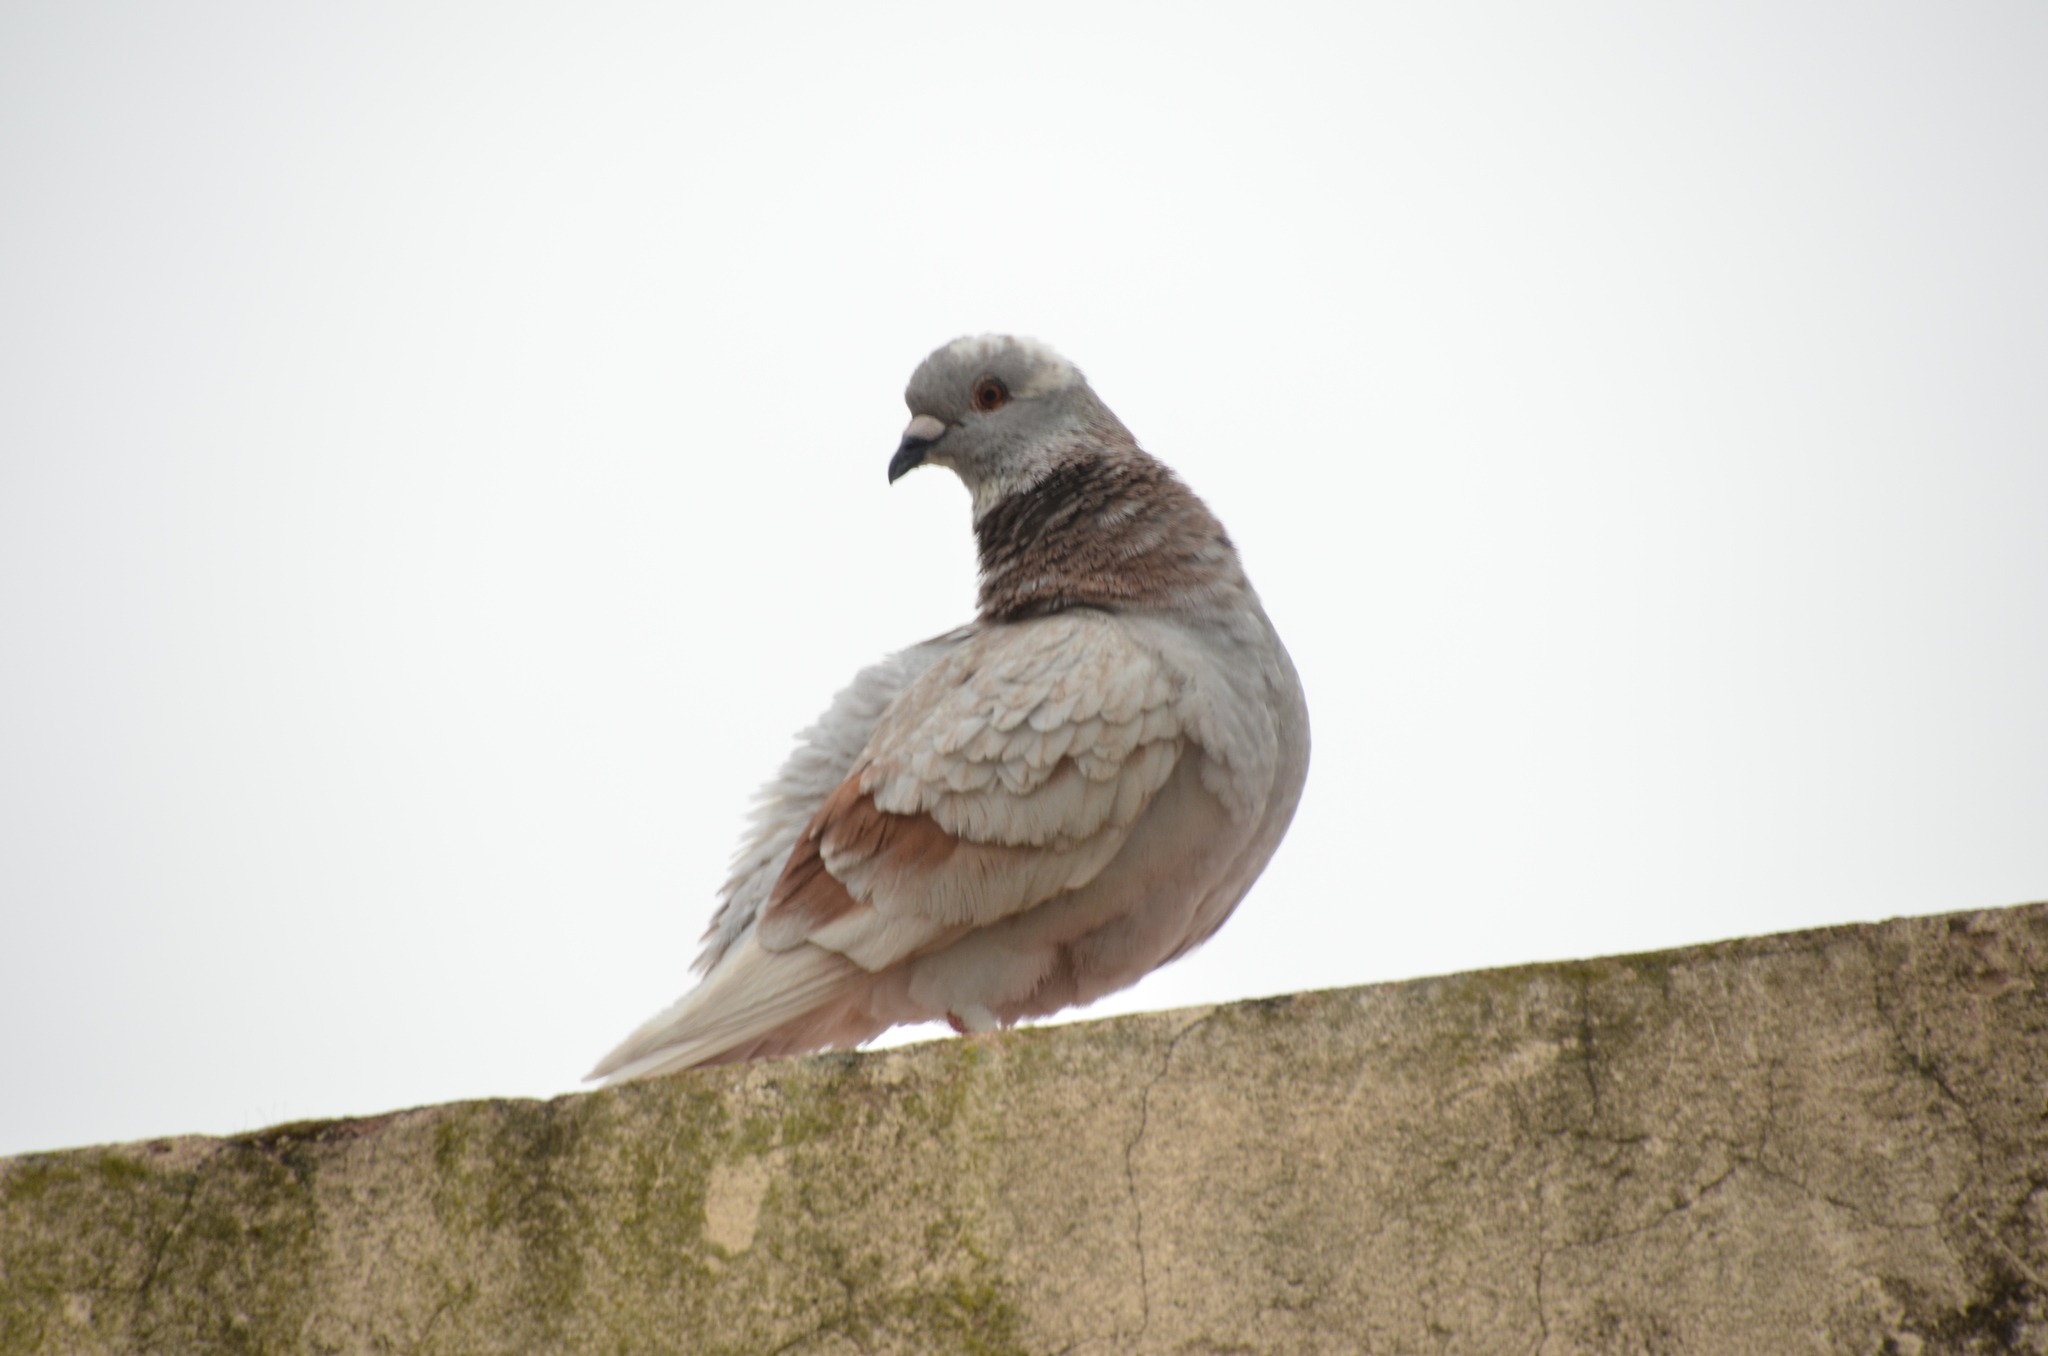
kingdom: Animalia
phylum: Chordata
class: Aves
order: Columbiformes
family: Columbidae
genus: Columba
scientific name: Columba livia
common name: Rock pigeon
